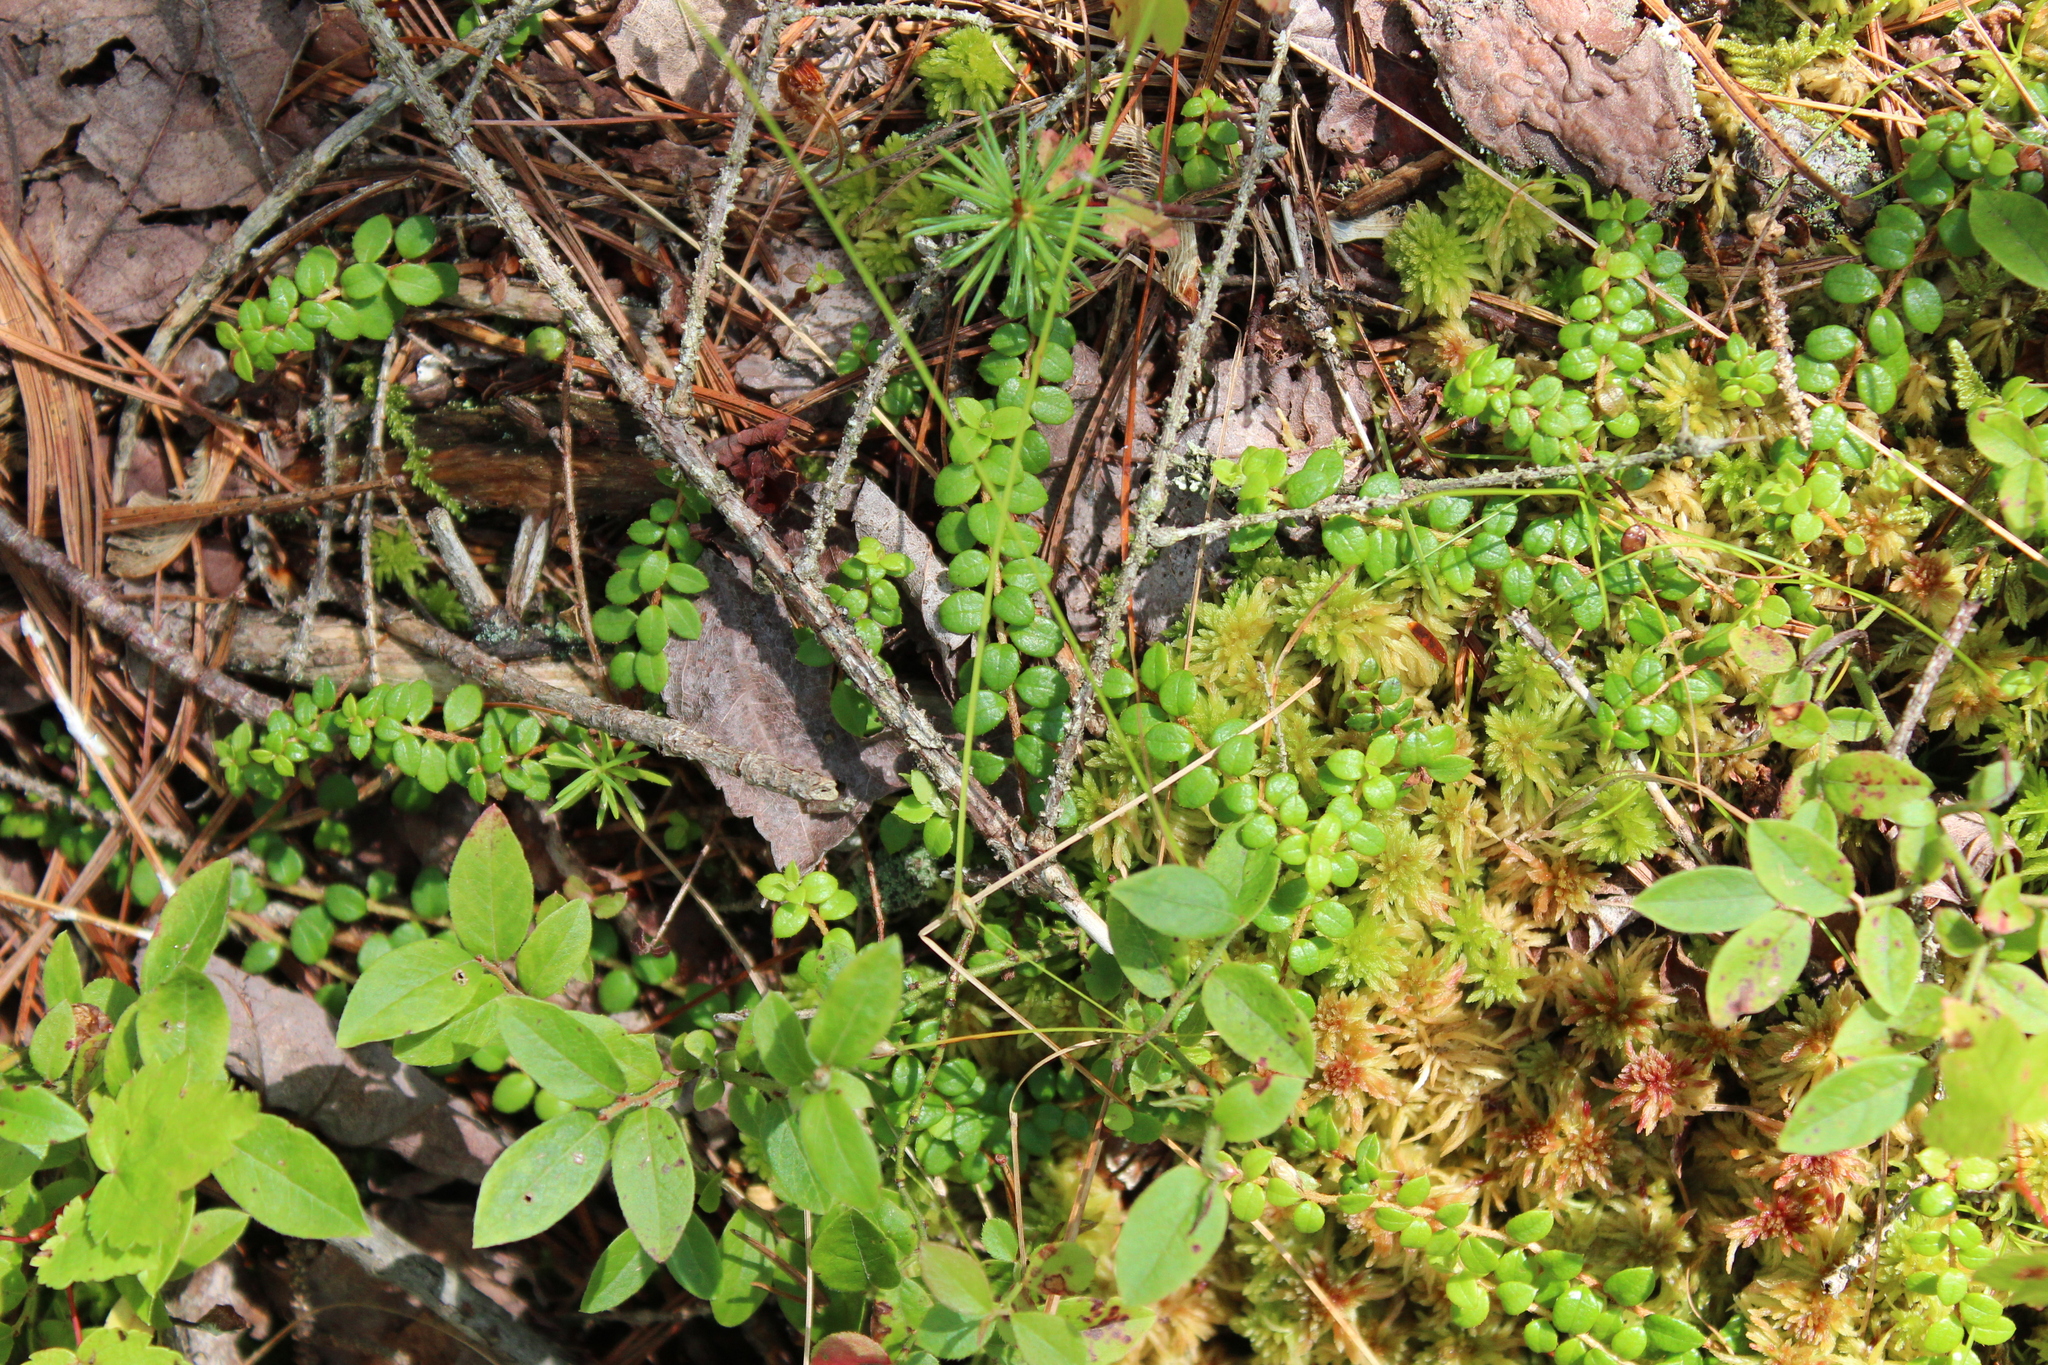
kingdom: Plantae
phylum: Tracheophyta
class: Magnoliopsida
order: Ericales
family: Ericaceae
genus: Gaultheria
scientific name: Gaultheria hispidula
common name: Cancer wintergreen
